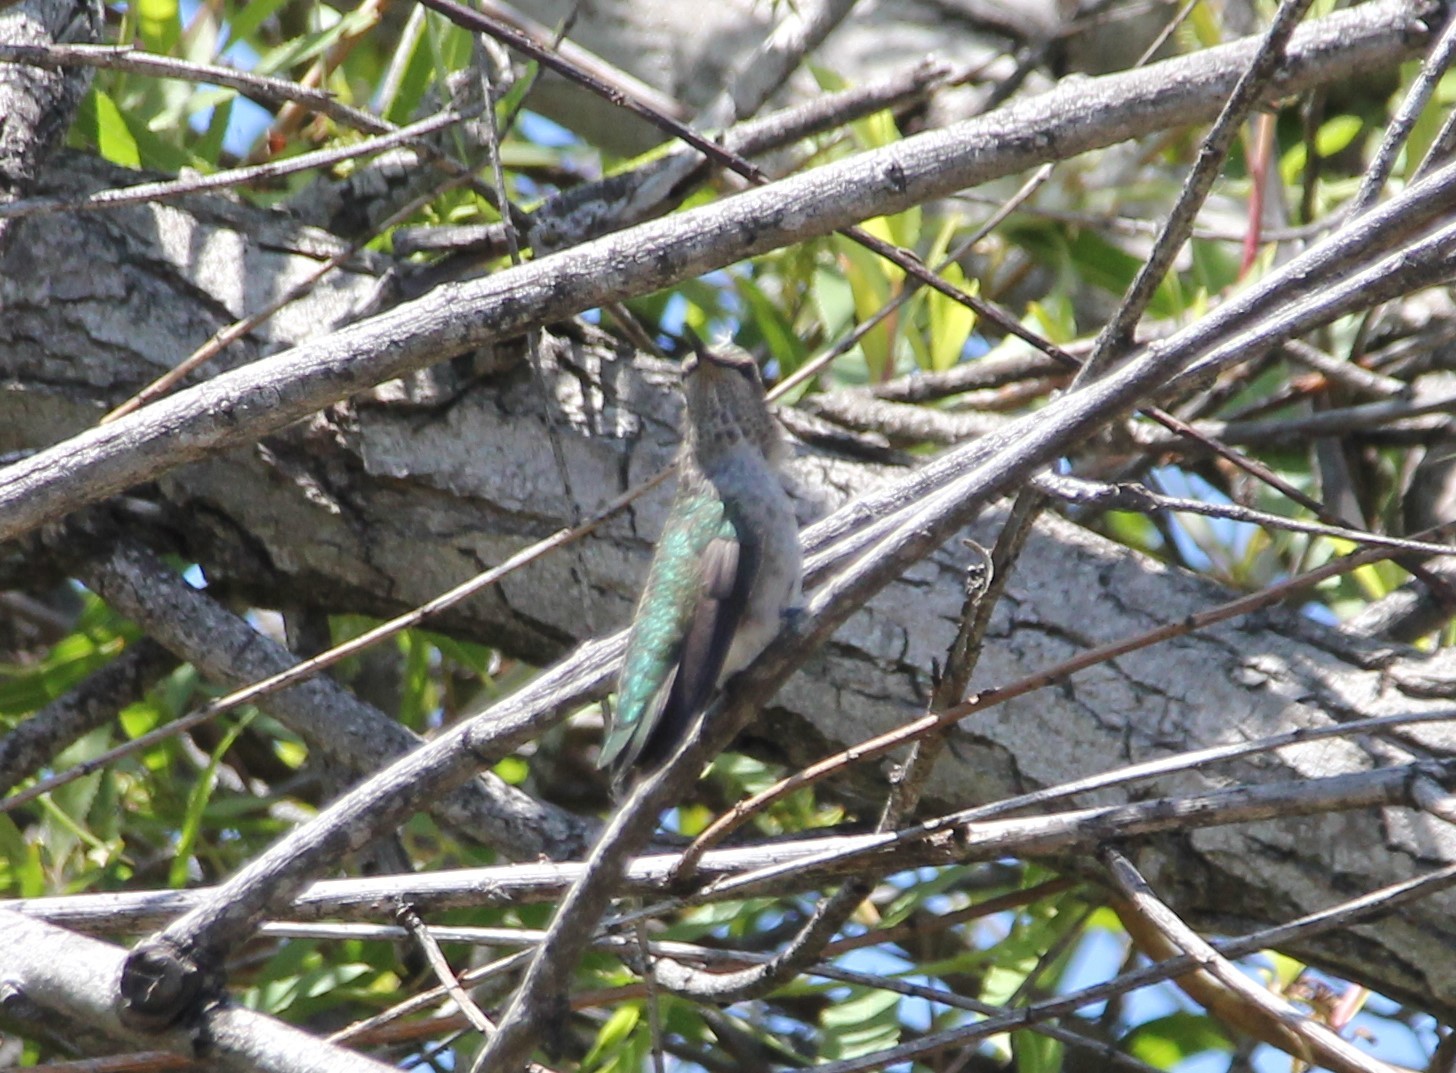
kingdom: Animalia
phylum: Chordata
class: Aves
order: Apodiformes
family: Trochilidae
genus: Selasphorus
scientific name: Selasphorus calliope
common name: Calliope hummingbird
